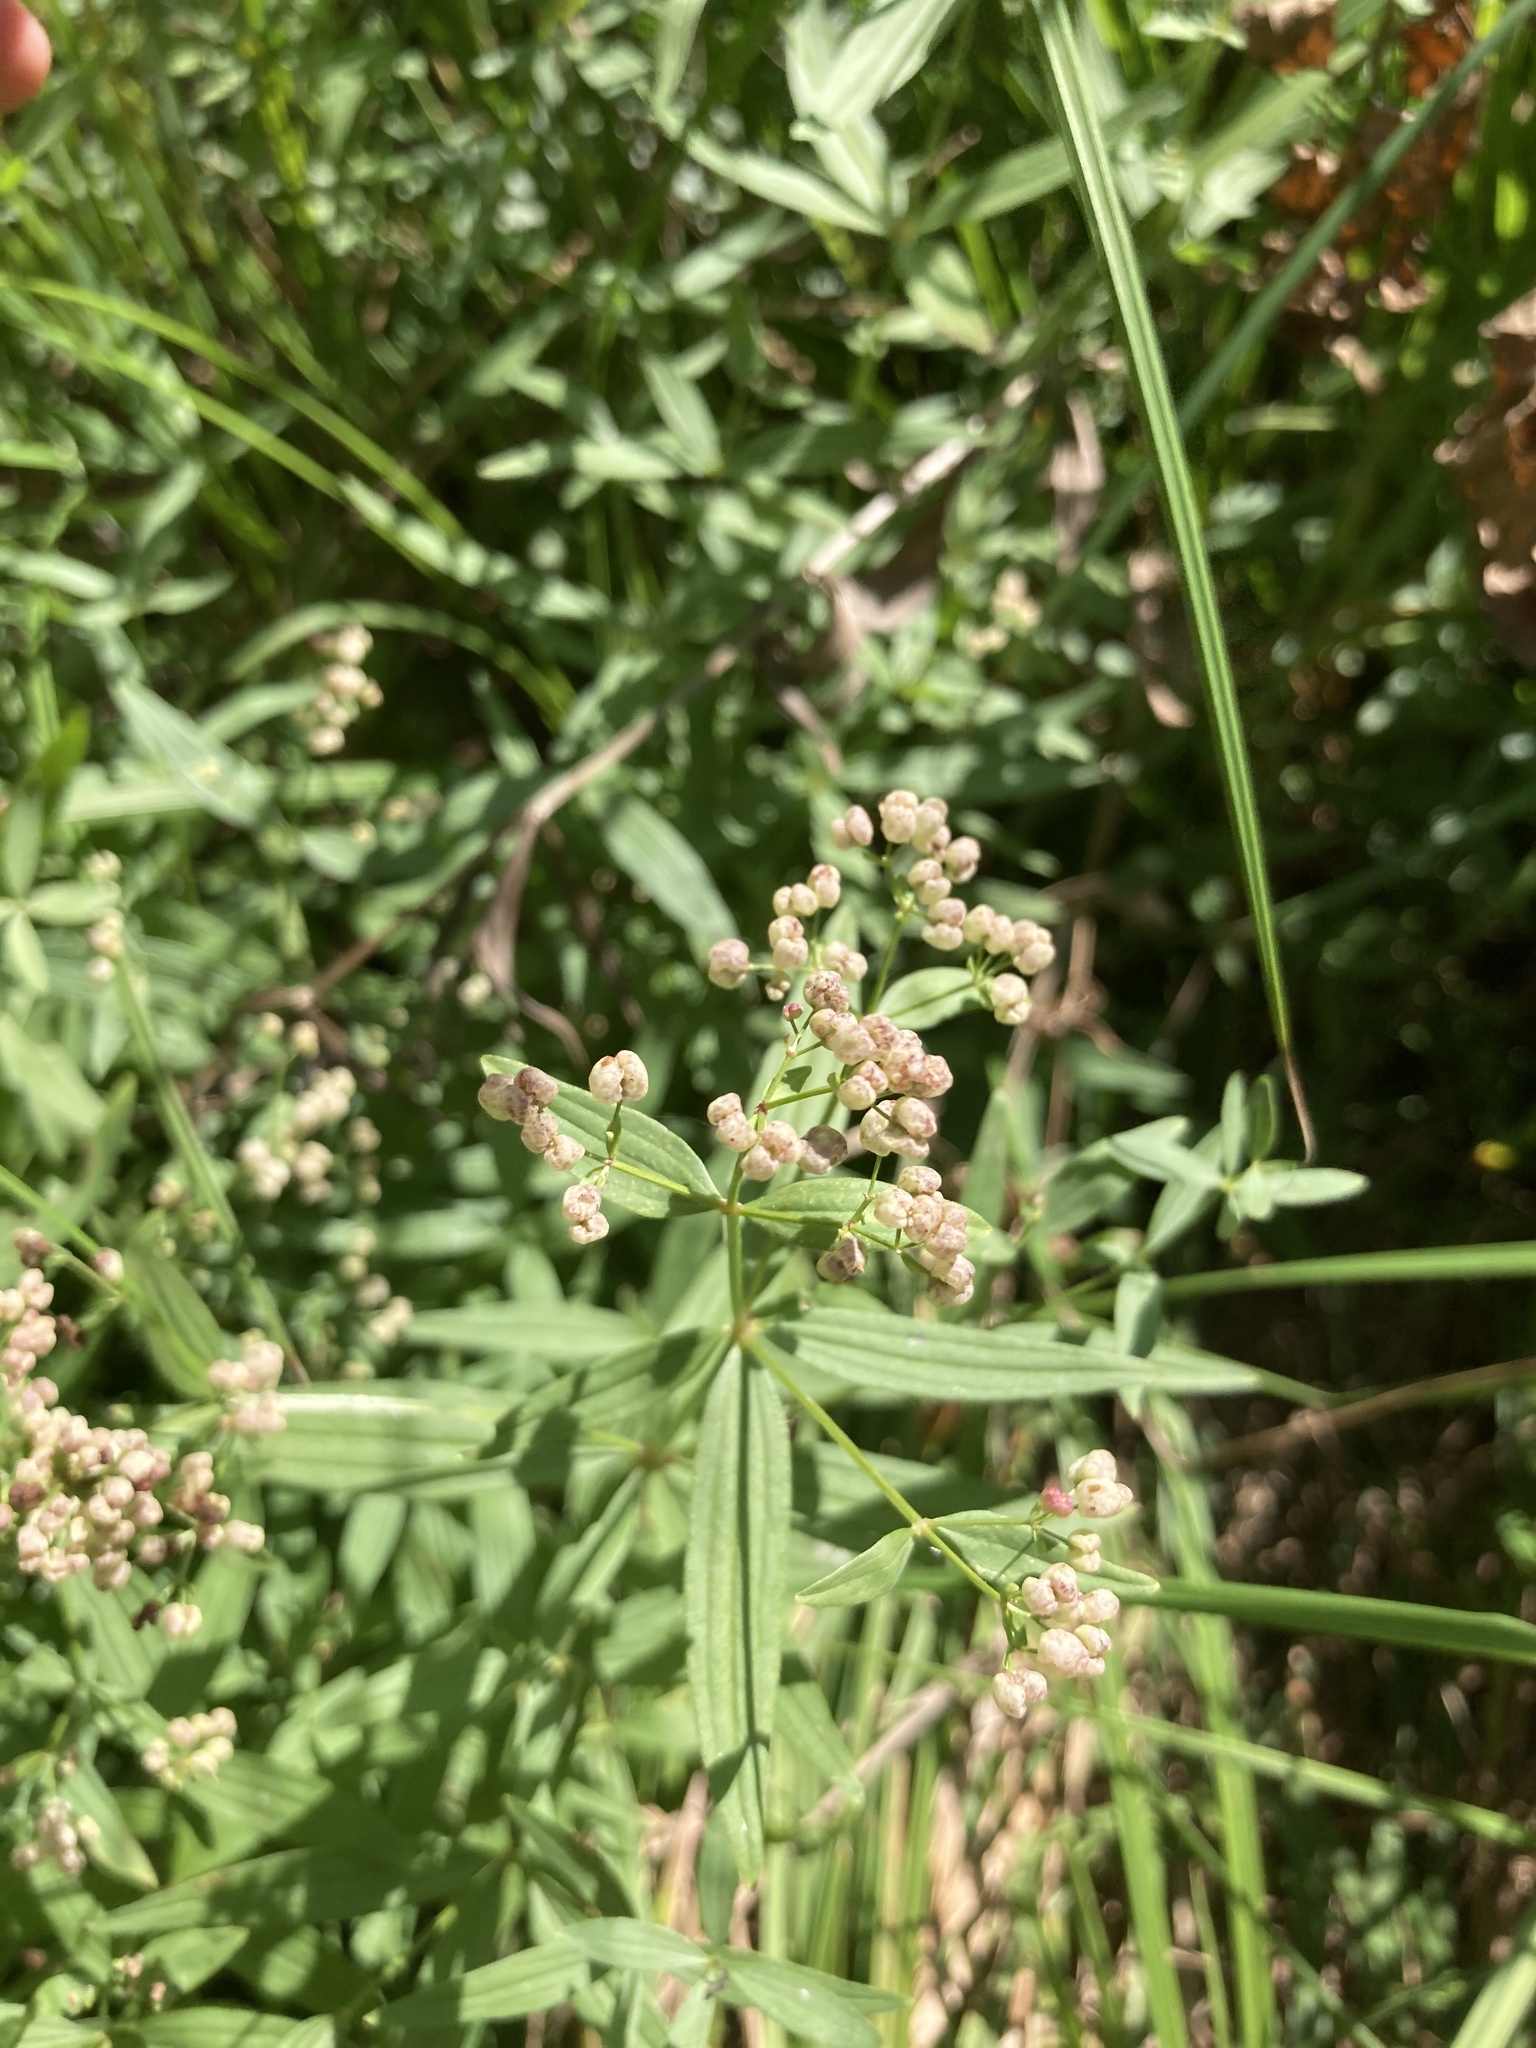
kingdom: Plantae
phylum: Tracheophyta
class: Magnoliopsida
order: Gentianales
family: Rubiaceae
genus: Galium
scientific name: Galium rubioides
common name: European bedstraw
